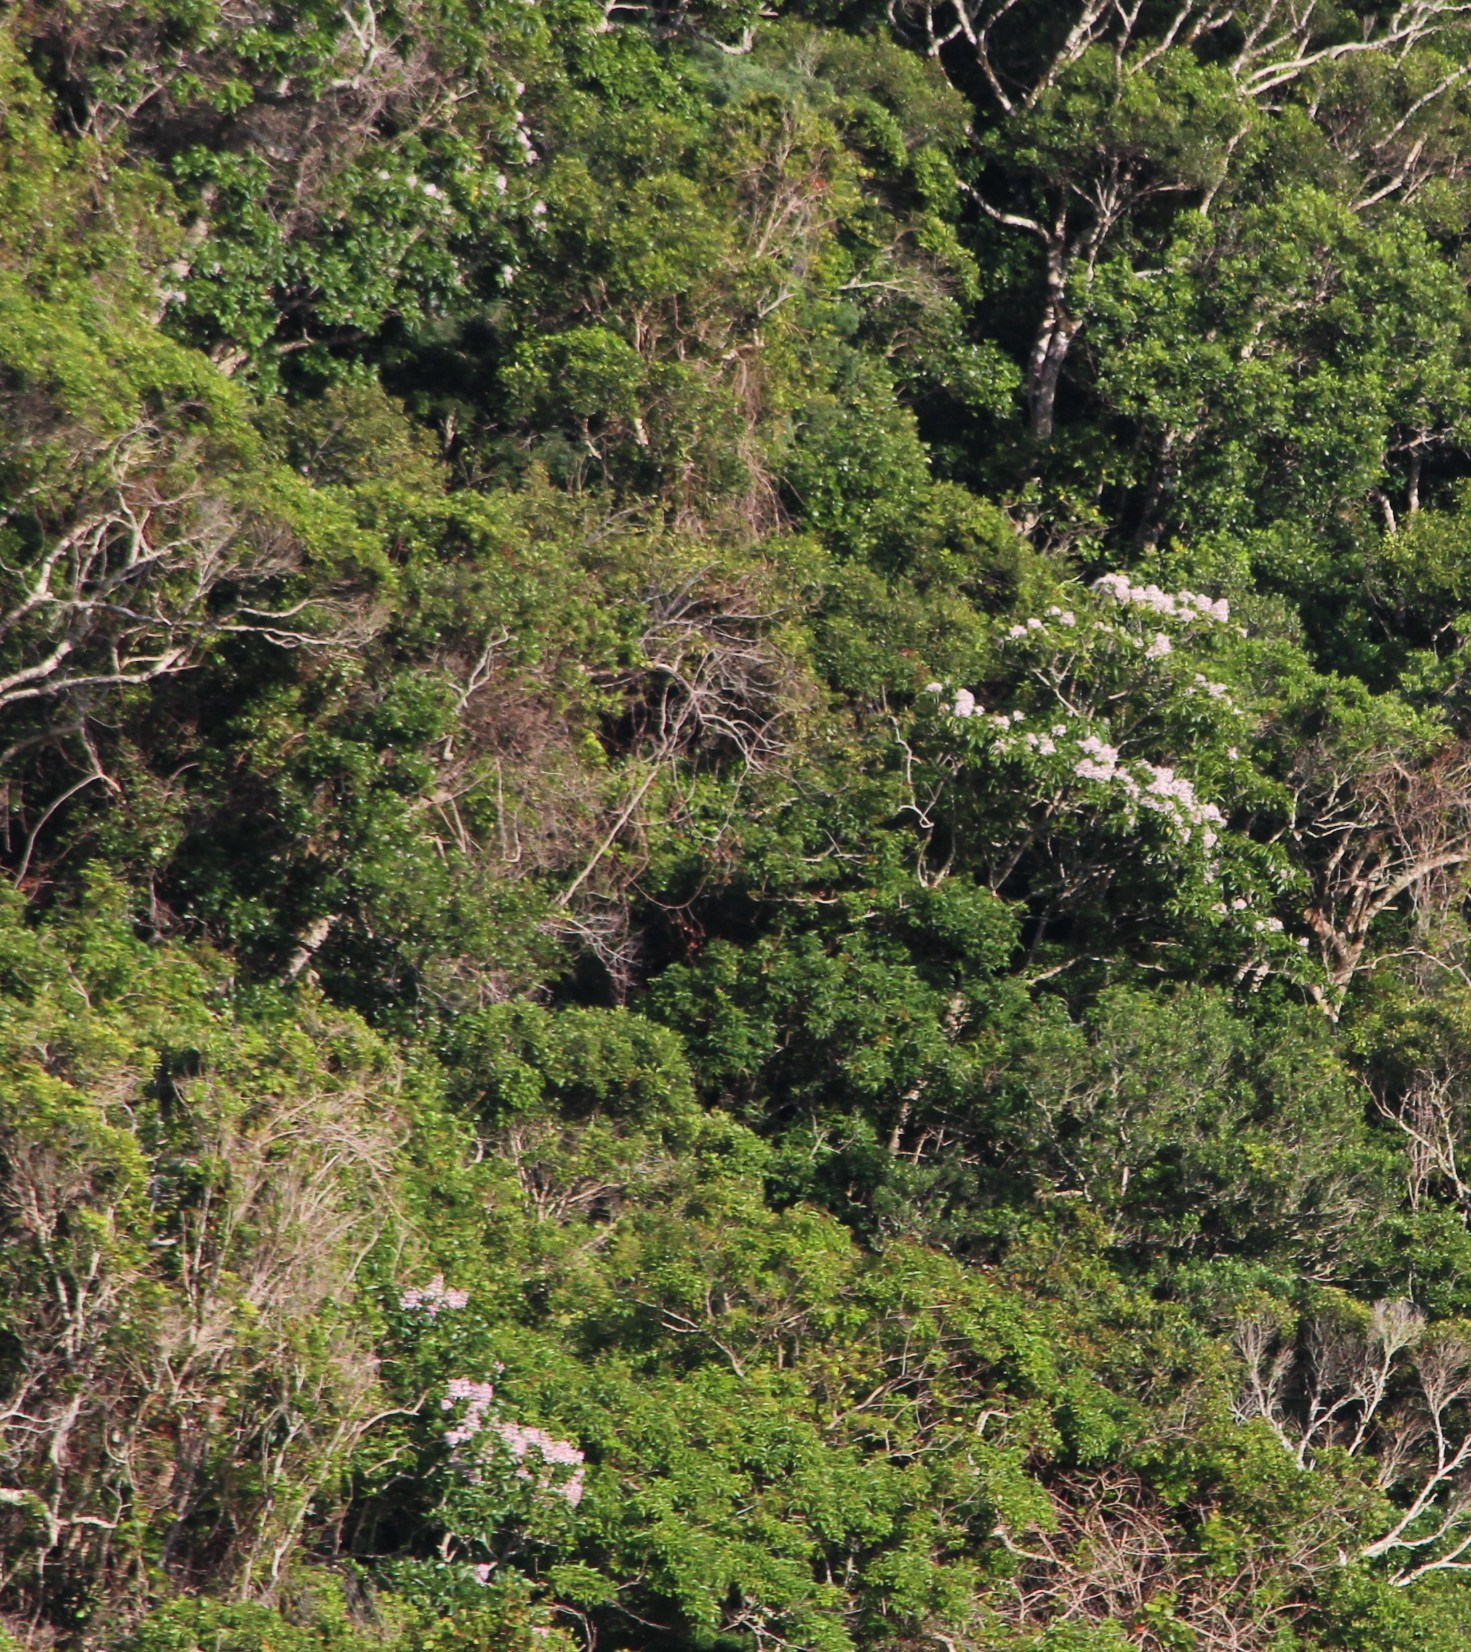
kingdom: Plantae
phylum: Tracheophyta
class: Magnoliopsida
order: Sapindales
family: Rutaceae
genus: Calodendrum
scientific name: Calodendrum capense
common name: Cape chestnut
